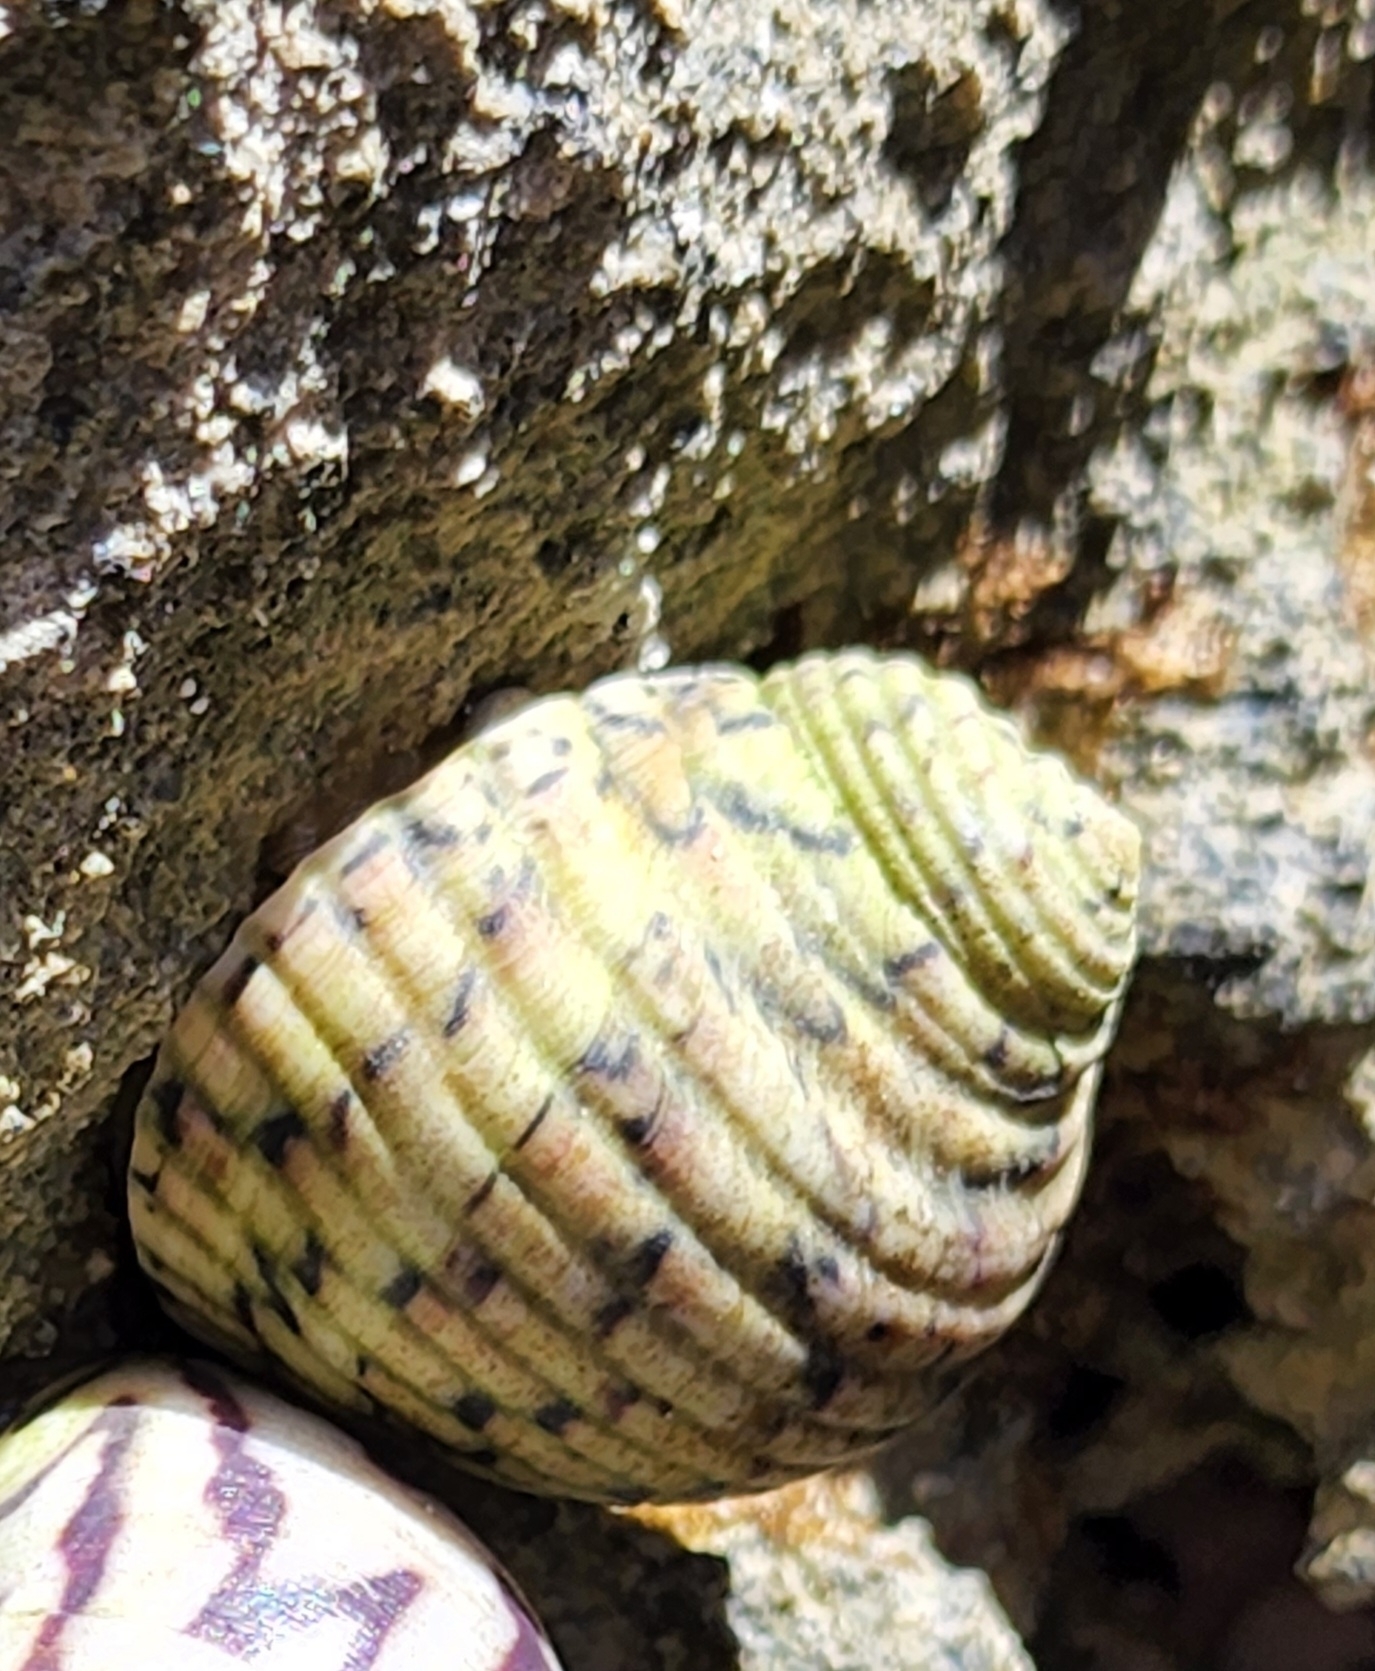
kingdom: Animalia
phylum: Mollusca
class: Gastropoda
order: Cycloneritida
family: Neritidae
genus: Nerita
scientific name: Nerita versicolor
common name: Four-tooth nerite
